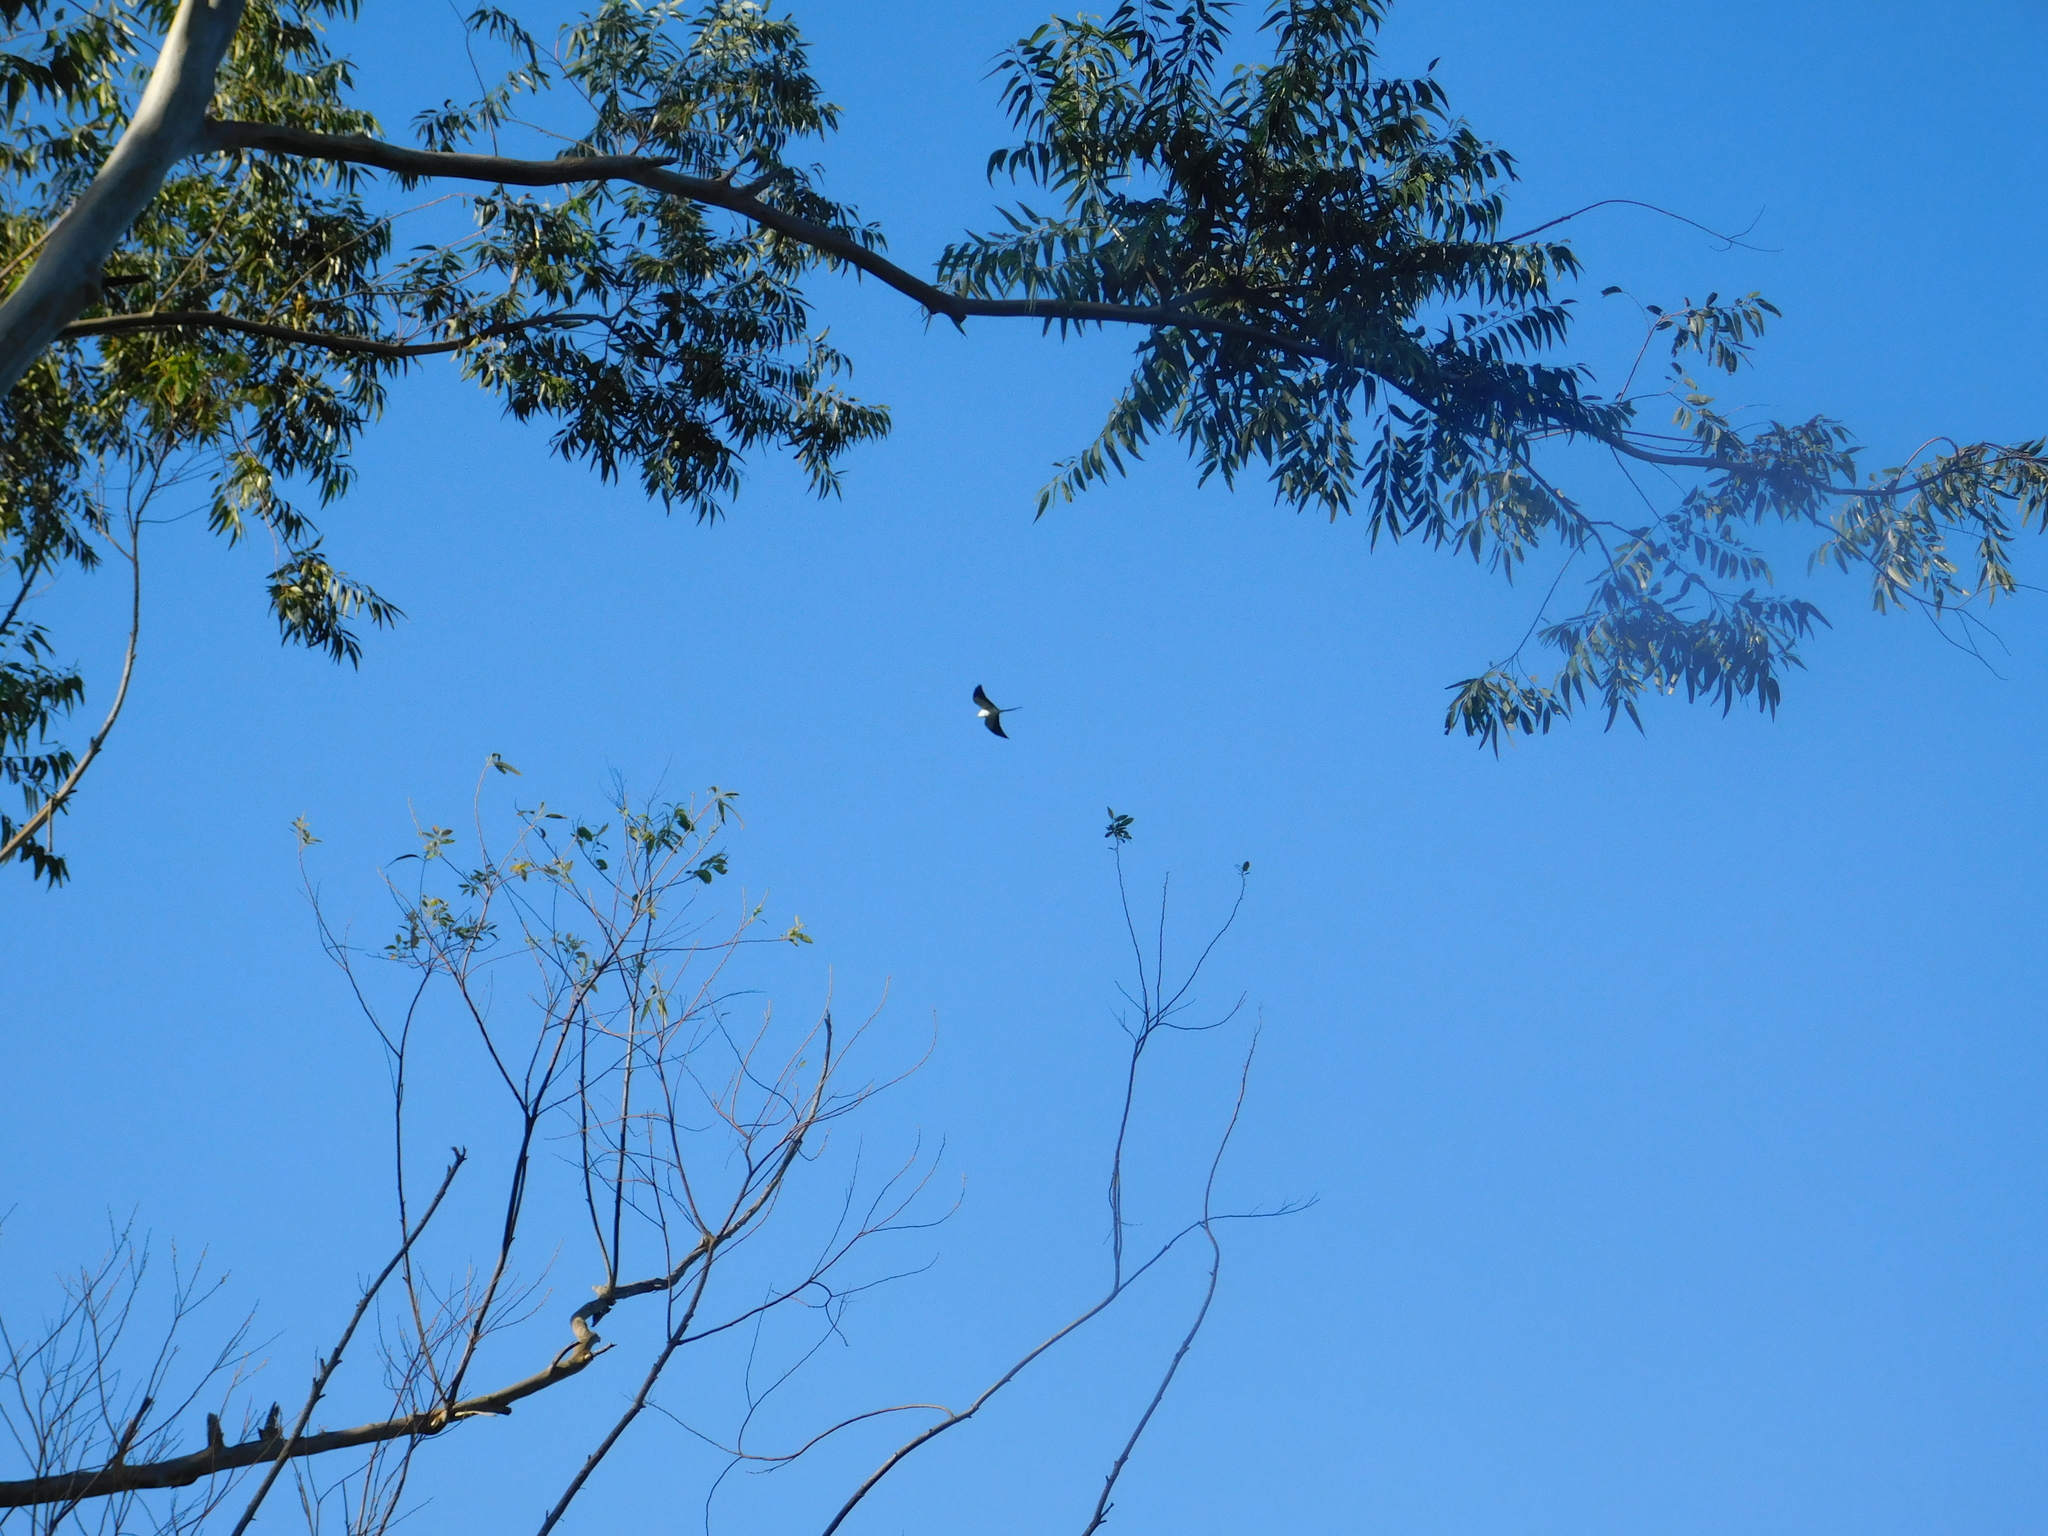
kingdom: Animalia
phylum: Chordata
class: Aves
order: Accipitriformes
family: Accipitridae
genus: Elanoides
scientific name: Elanoides forficatus
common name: Swallow-tailed kite
